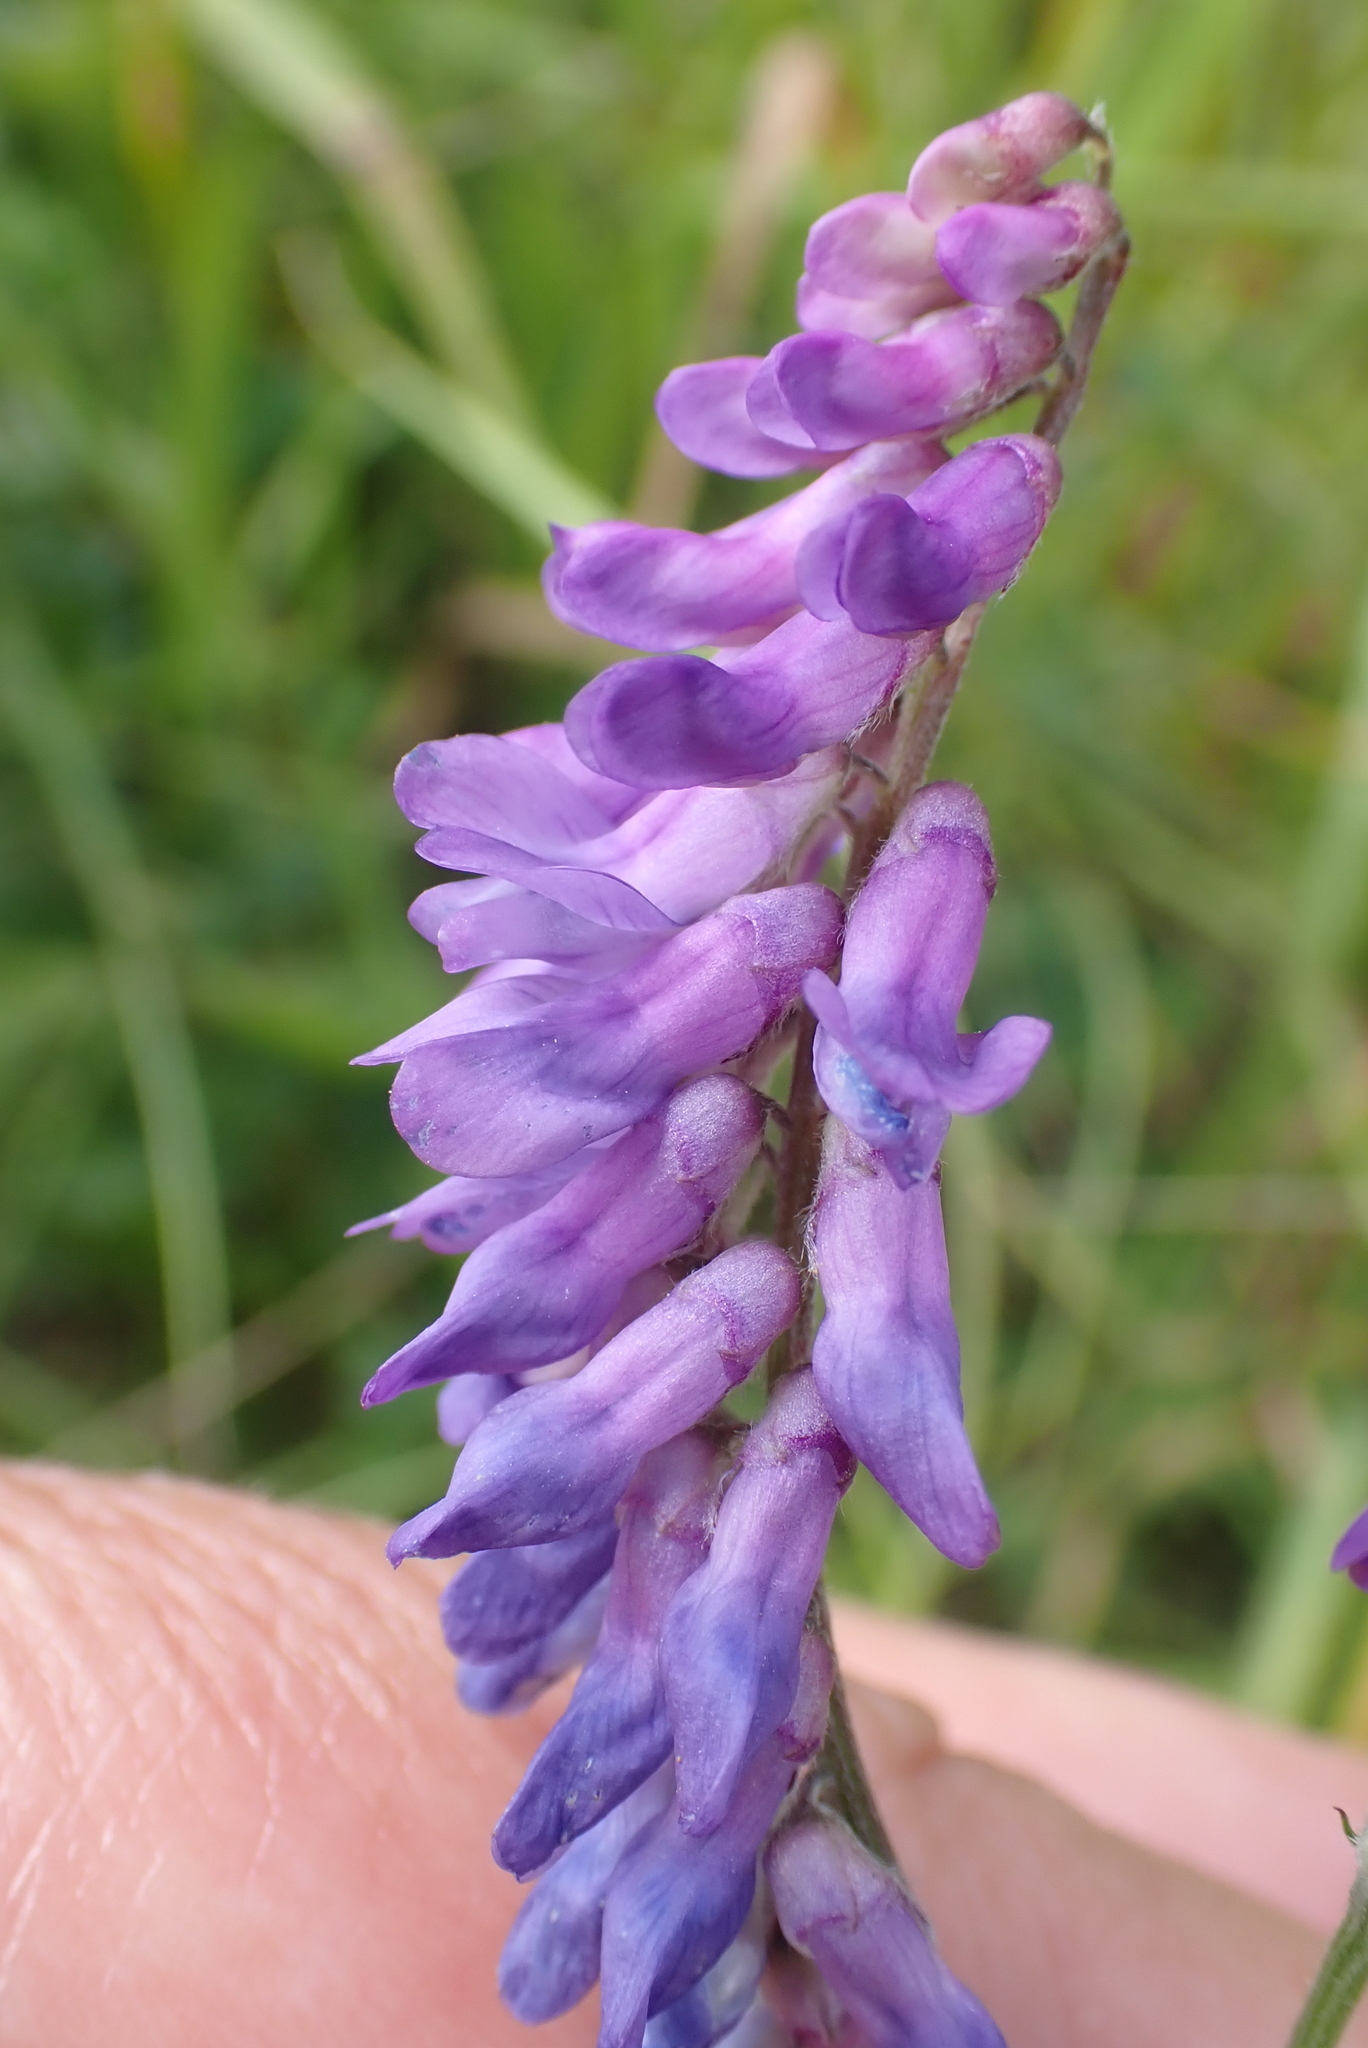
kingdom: Plantae
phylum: Tracheophyta
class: Magnoliopsida
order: Fabales
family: Fabaceae
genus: Vicia
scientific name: Vicia cracca
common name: Bird vetch
